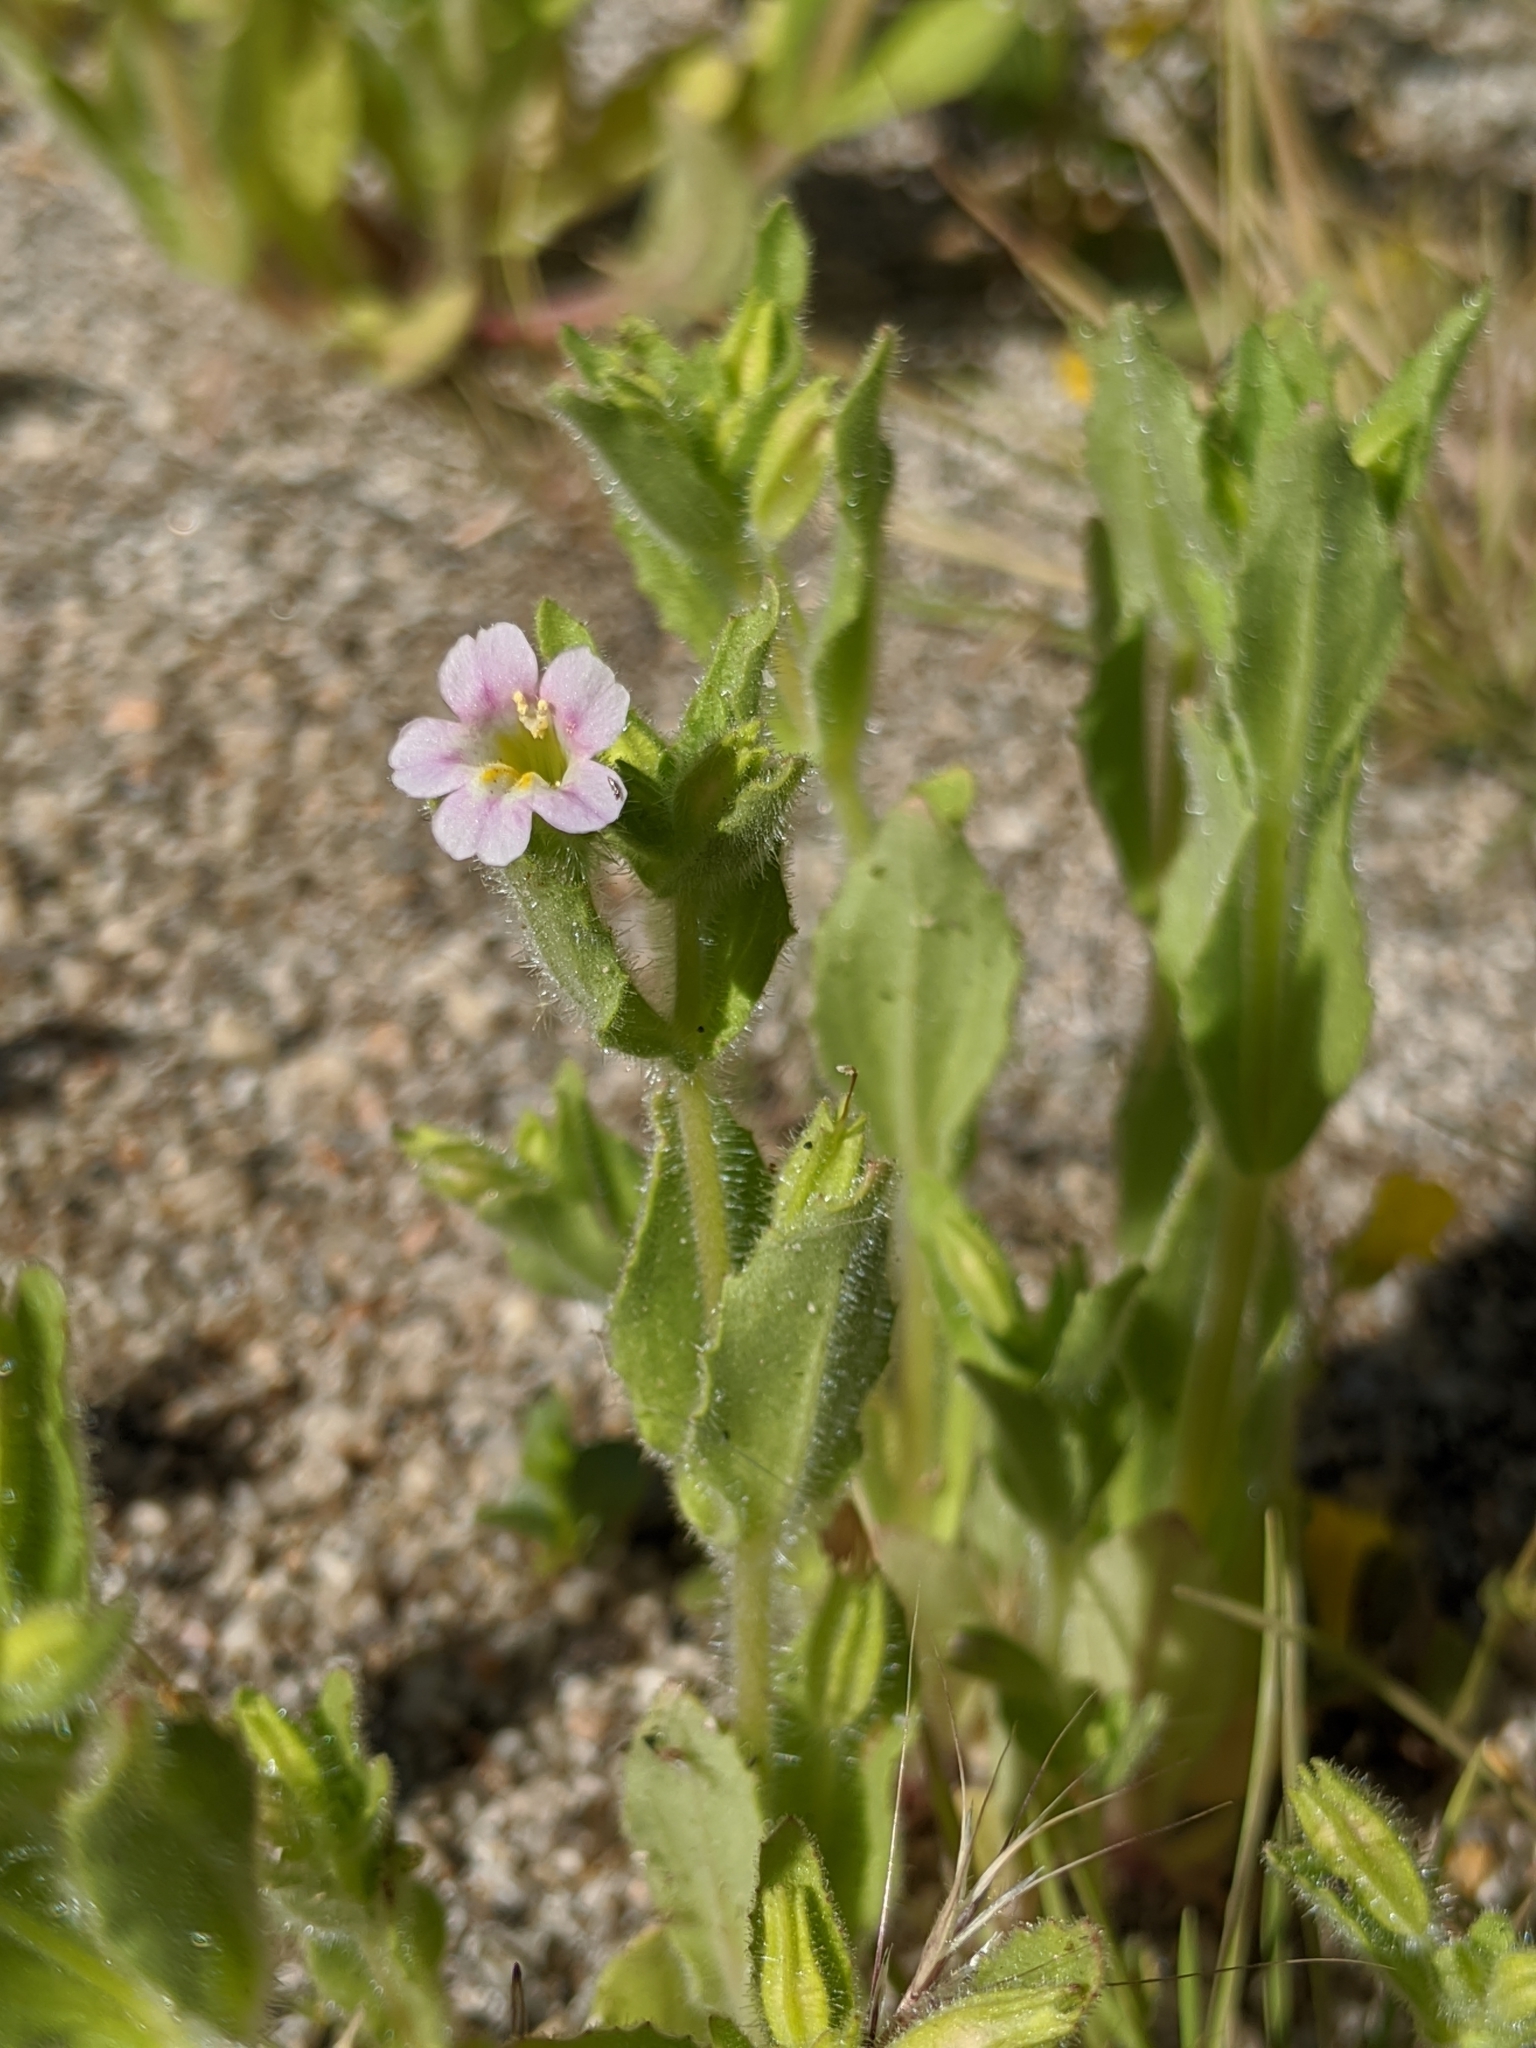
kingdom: Plantae
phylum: Tracheophyta
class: Magnoliopsida
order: Lamiales
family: Phrymaceae
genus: Erythranthe
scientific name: Erythranthe parishii
